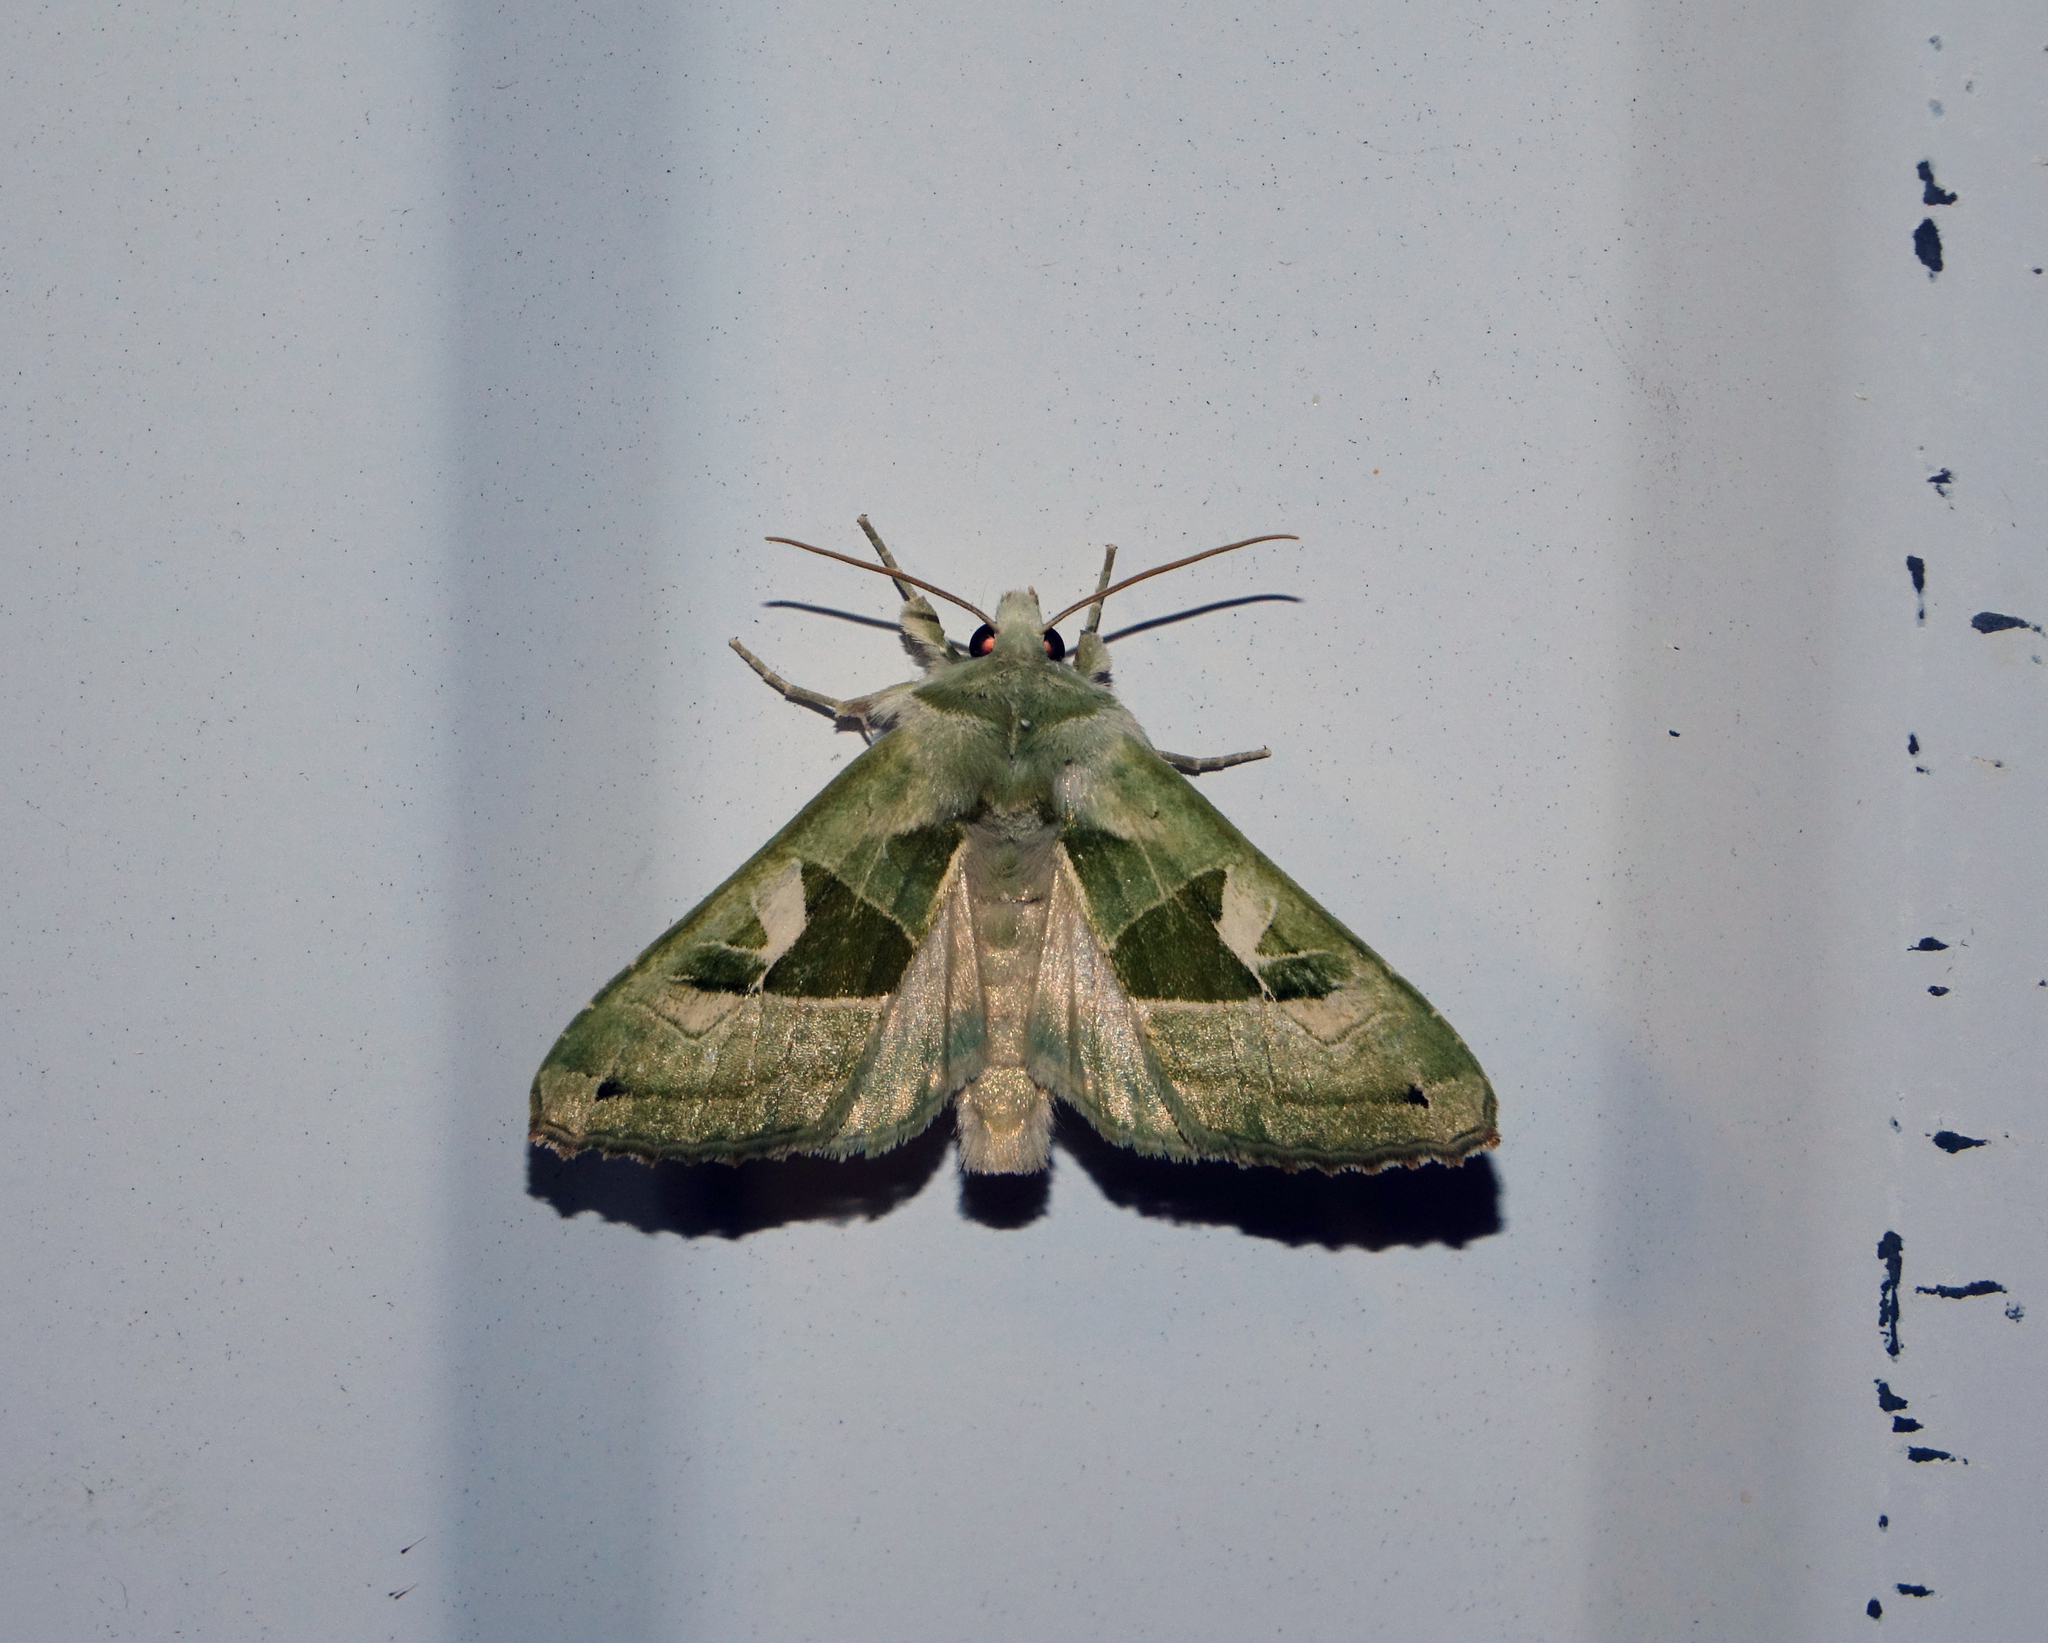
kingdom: Animalia
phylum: Arthropoda
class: Insecta
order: Lepidoptera
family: Noctuidae
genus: Phlogophora
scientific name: Phlogophora scita
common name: Green angle shades
